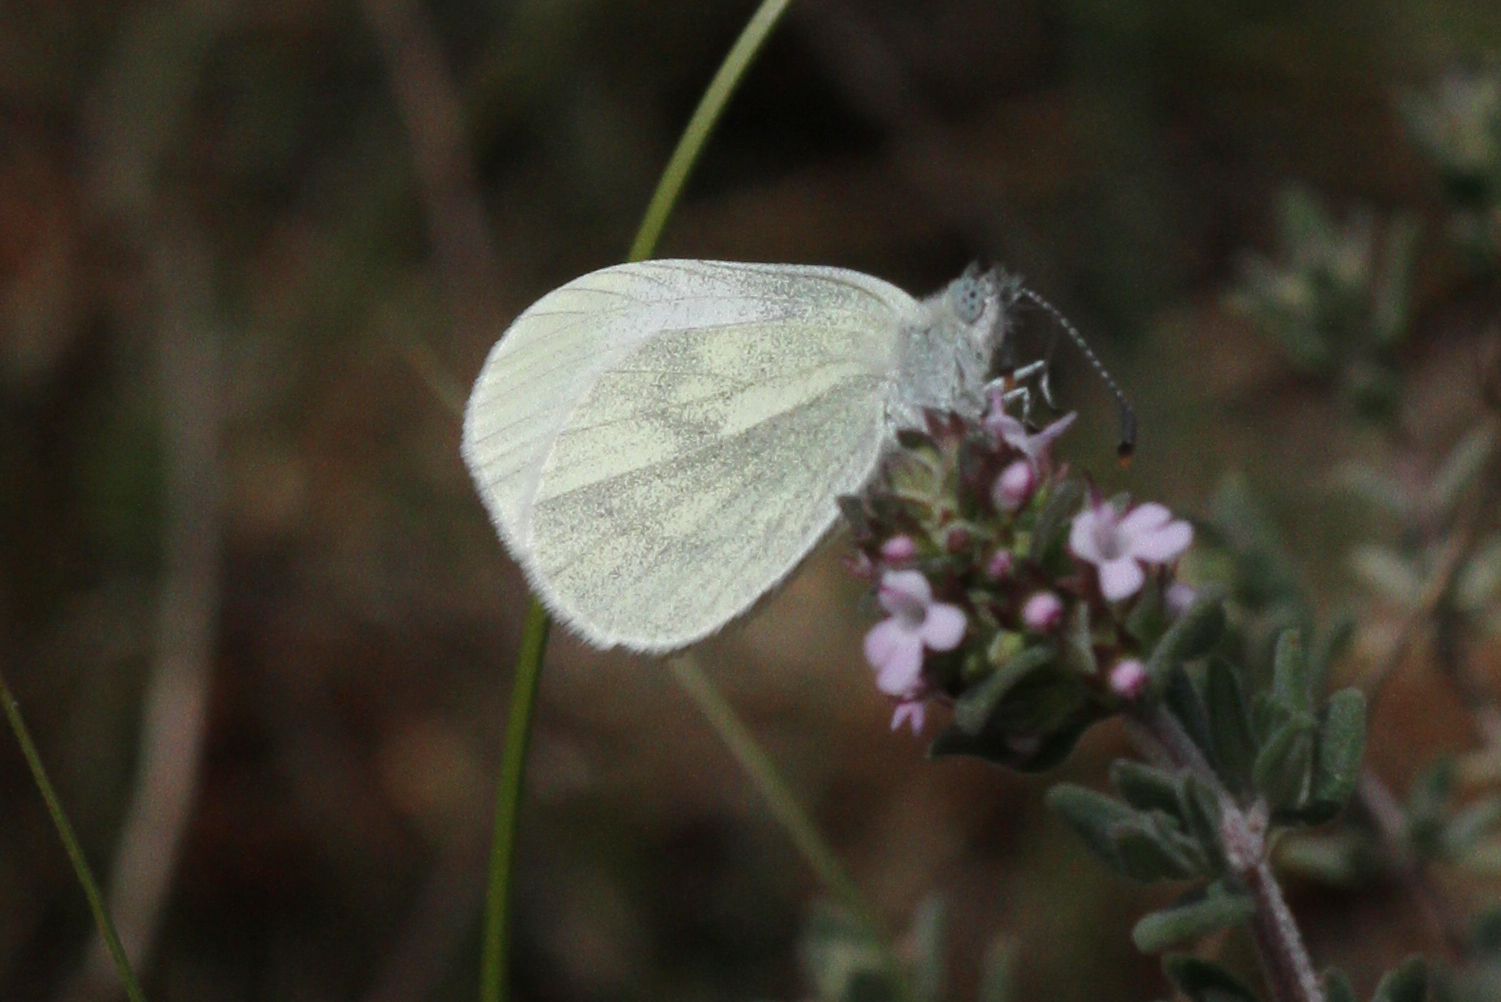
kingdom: Animalia
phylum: Arthropoda
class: Insecta
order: Lepidoptera
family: Pieridae
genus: Leptidea
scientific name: Leptidea
